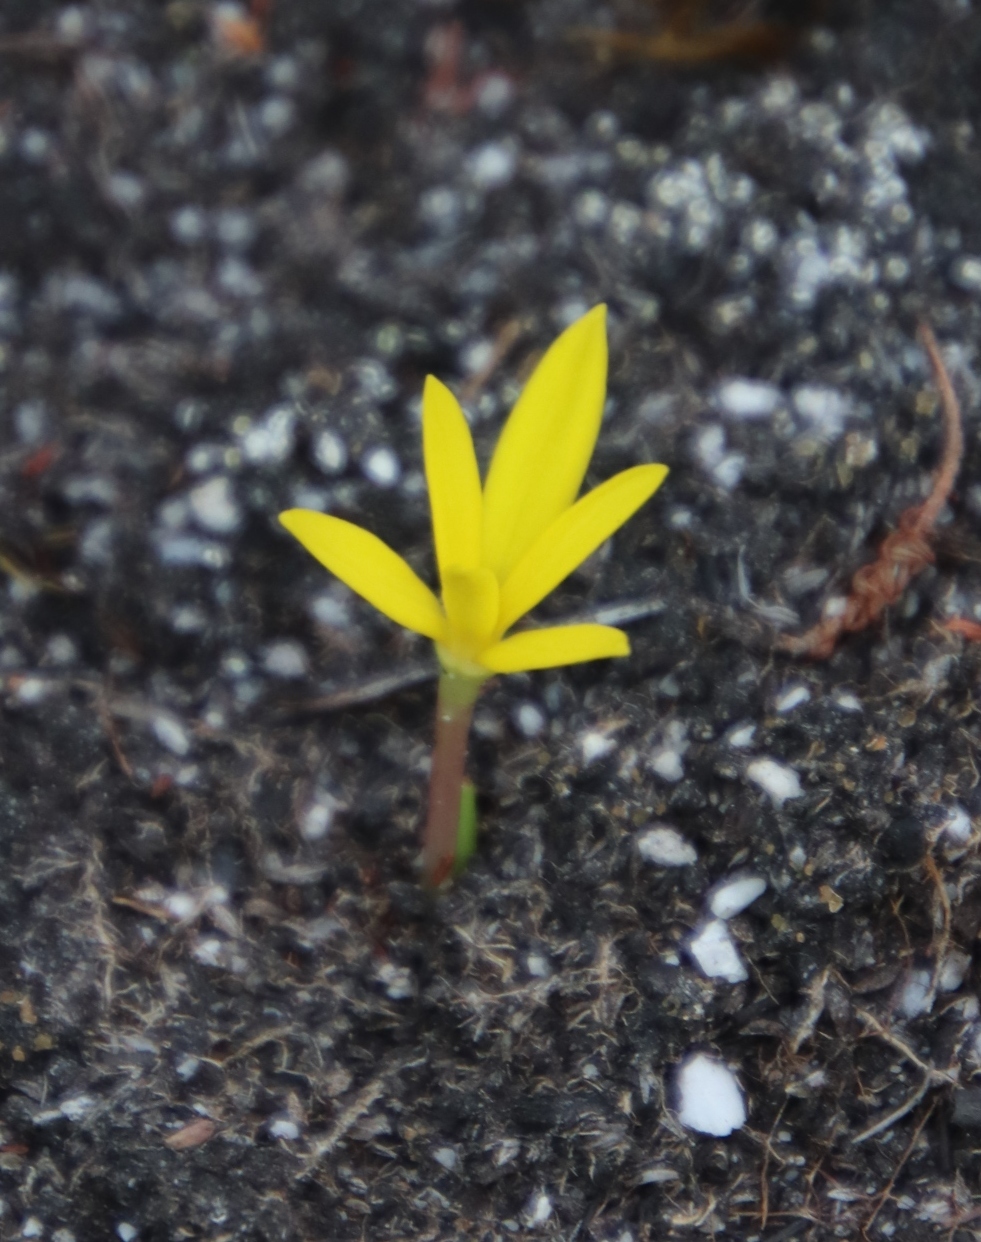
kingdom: Plantae
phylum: Tracheophyta
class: Liliopsida
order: Asparagales
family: Hypoxidaceae
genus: Pauridia
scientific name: Pauridia monophylla
